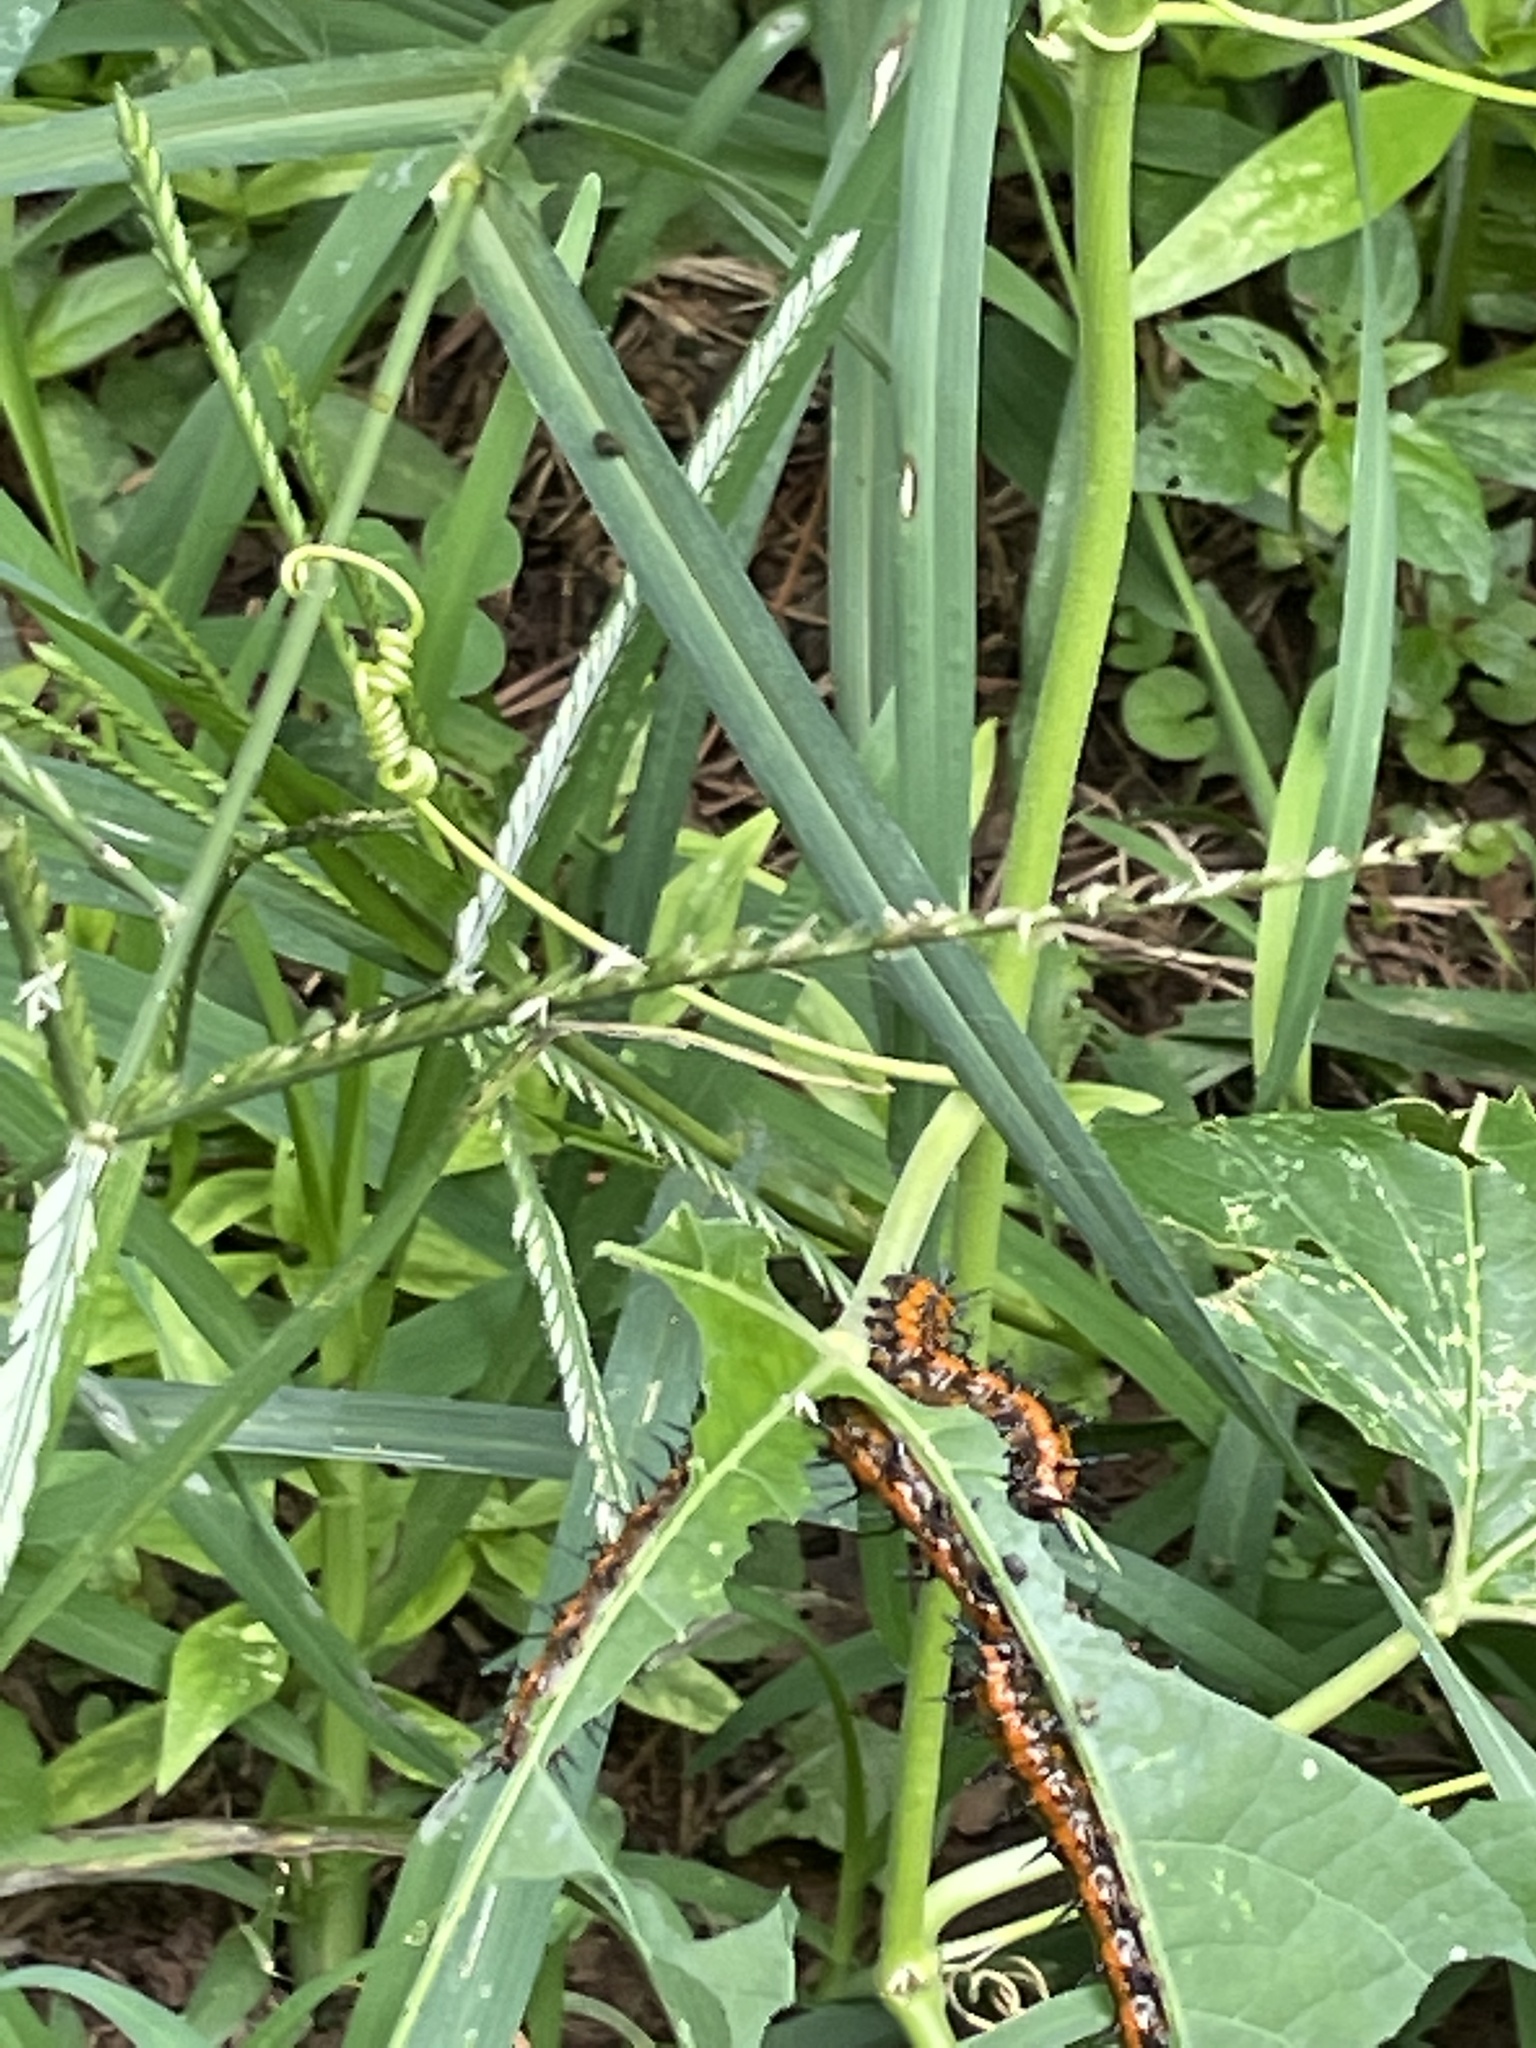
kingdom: Animalia
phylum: Arthropoda
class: Insecta
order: Lepidoptera
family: Nymphalidae
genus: Dione
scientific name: Dione vanillae
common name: Gulf fritillary
